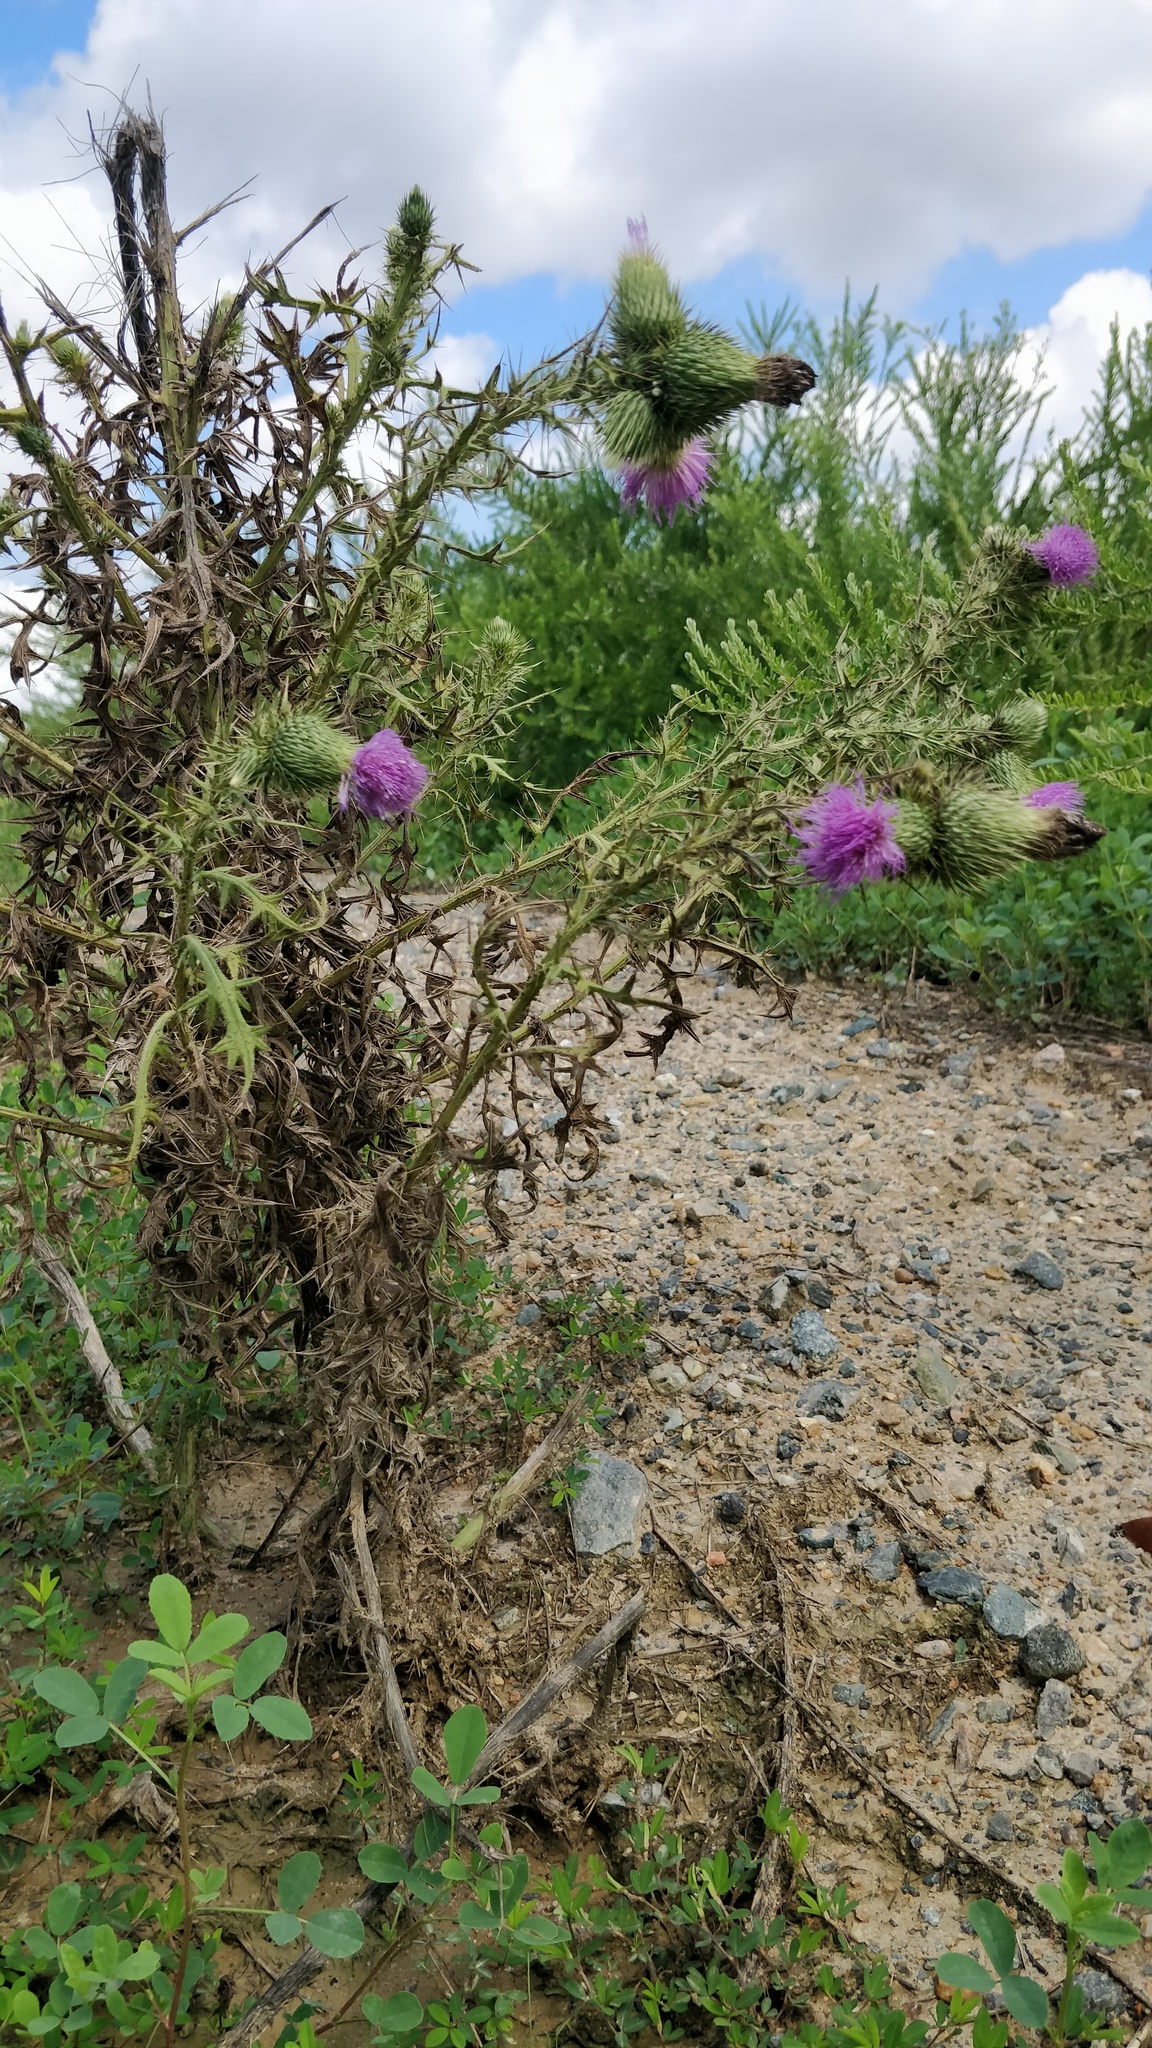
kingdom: Plantae
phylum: Tracheophyta
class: Magnoliopsida
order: Asterales
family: Asteraceae
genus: Cirsium
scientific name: Cirsium vulgare
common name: Bull thistle
